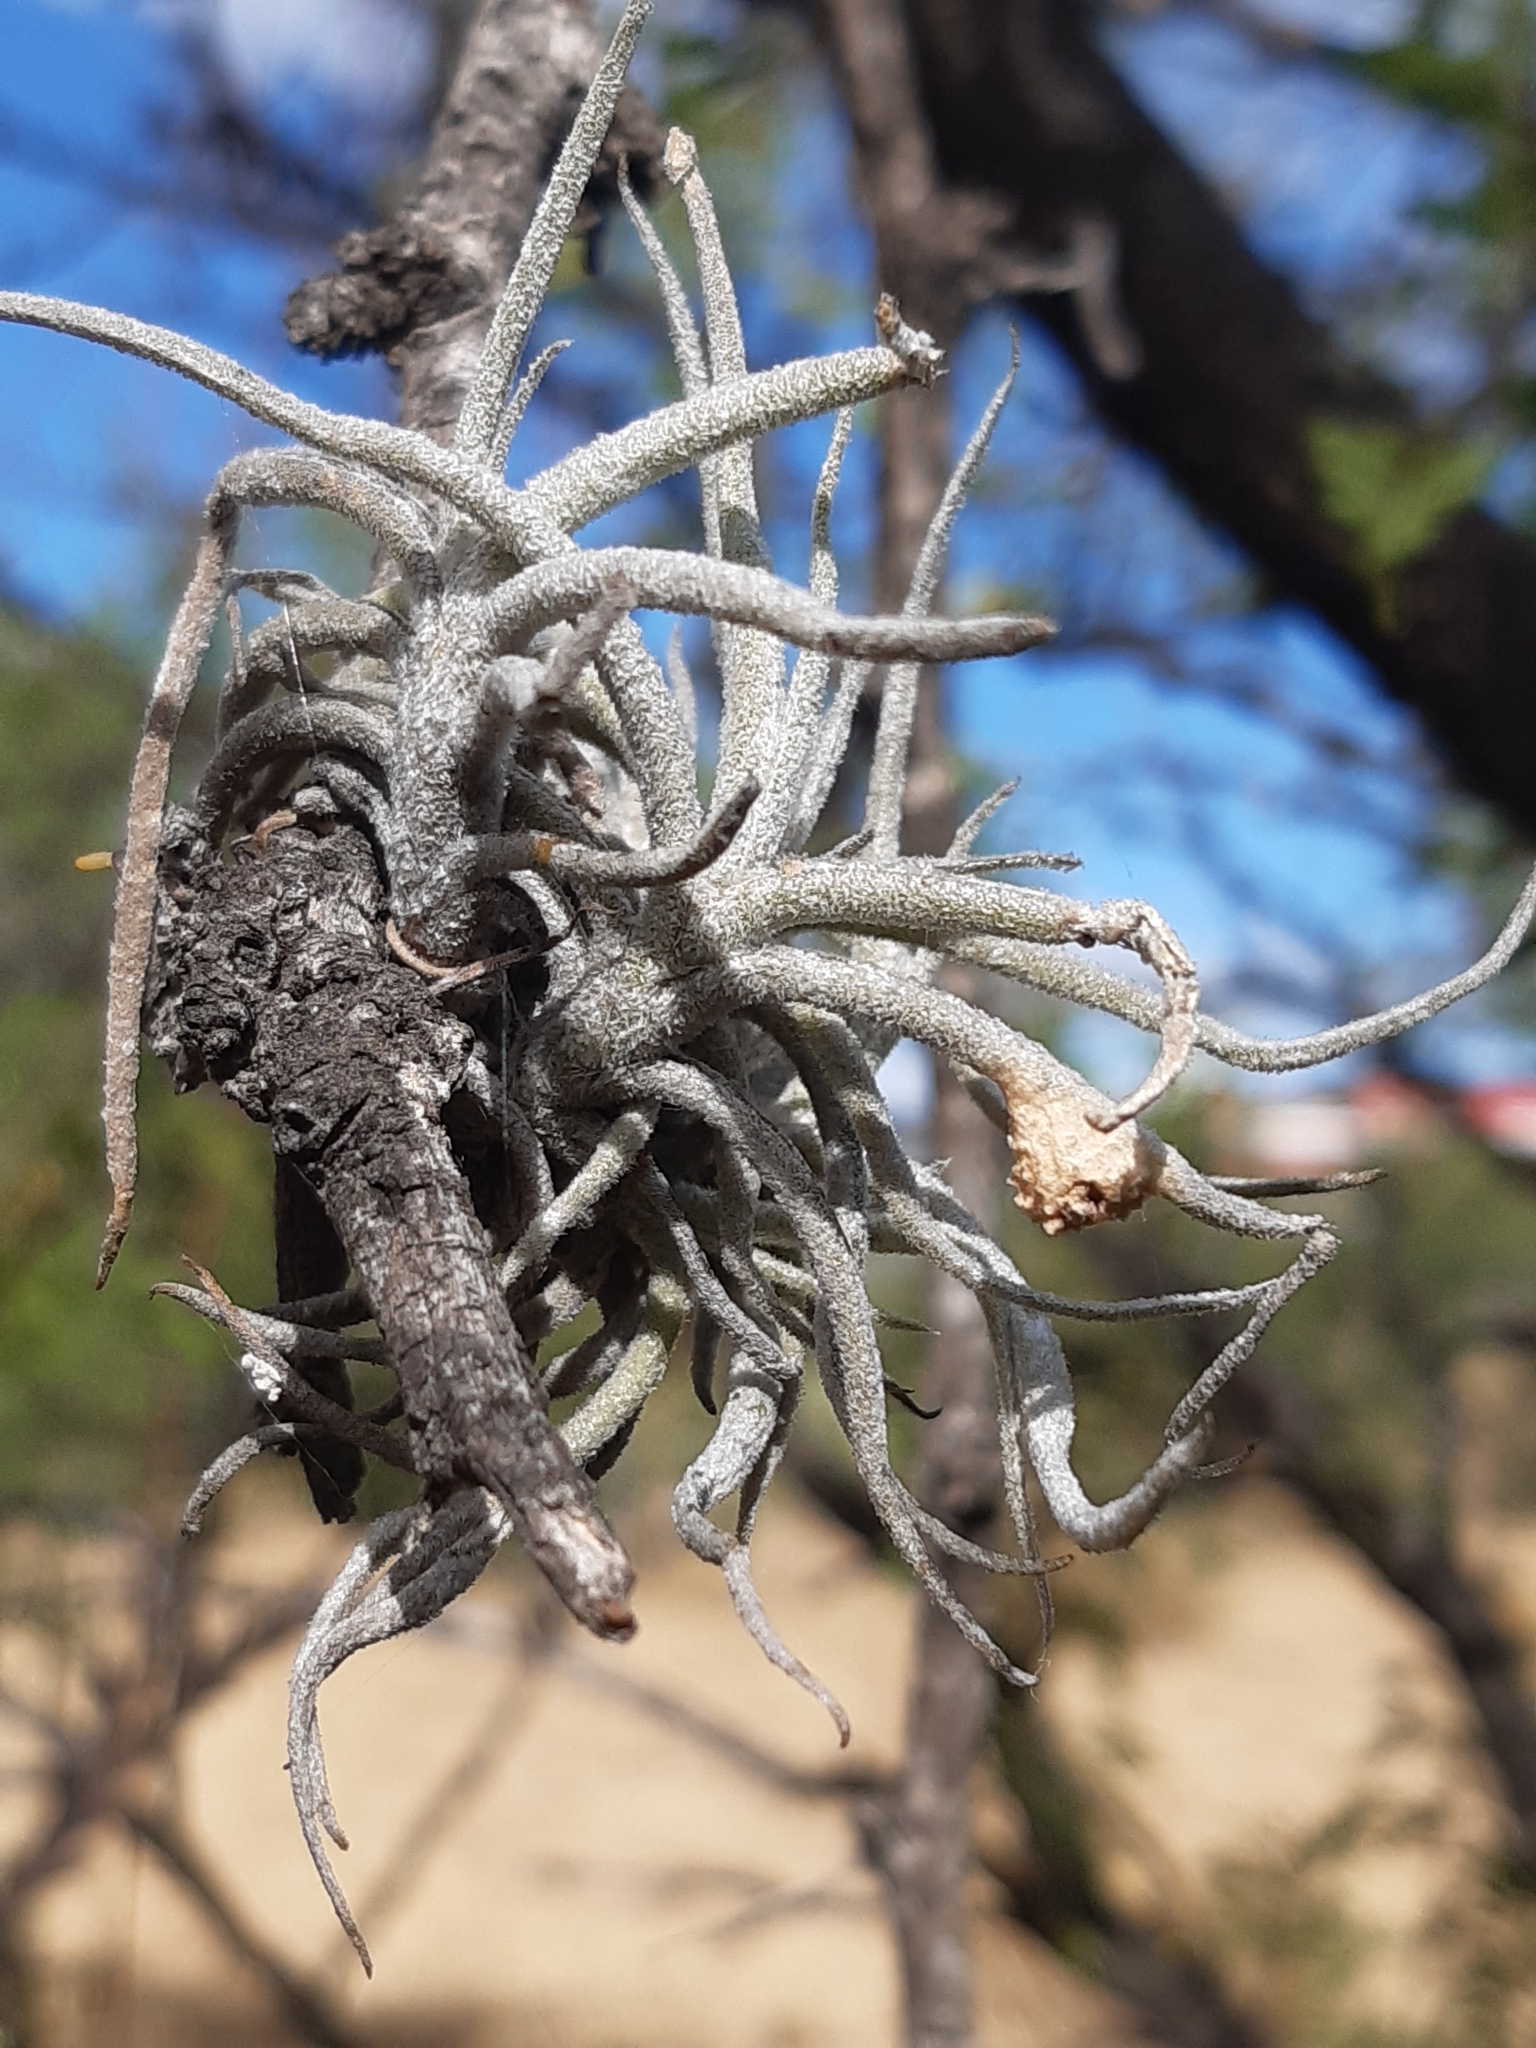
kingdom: Plantae
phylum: Tracheophyta
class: Liliopsida
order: Poales
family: Bromeliaceae
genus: Tillandsia
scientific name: Tillandsia recurvata
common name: Small ballmoss
